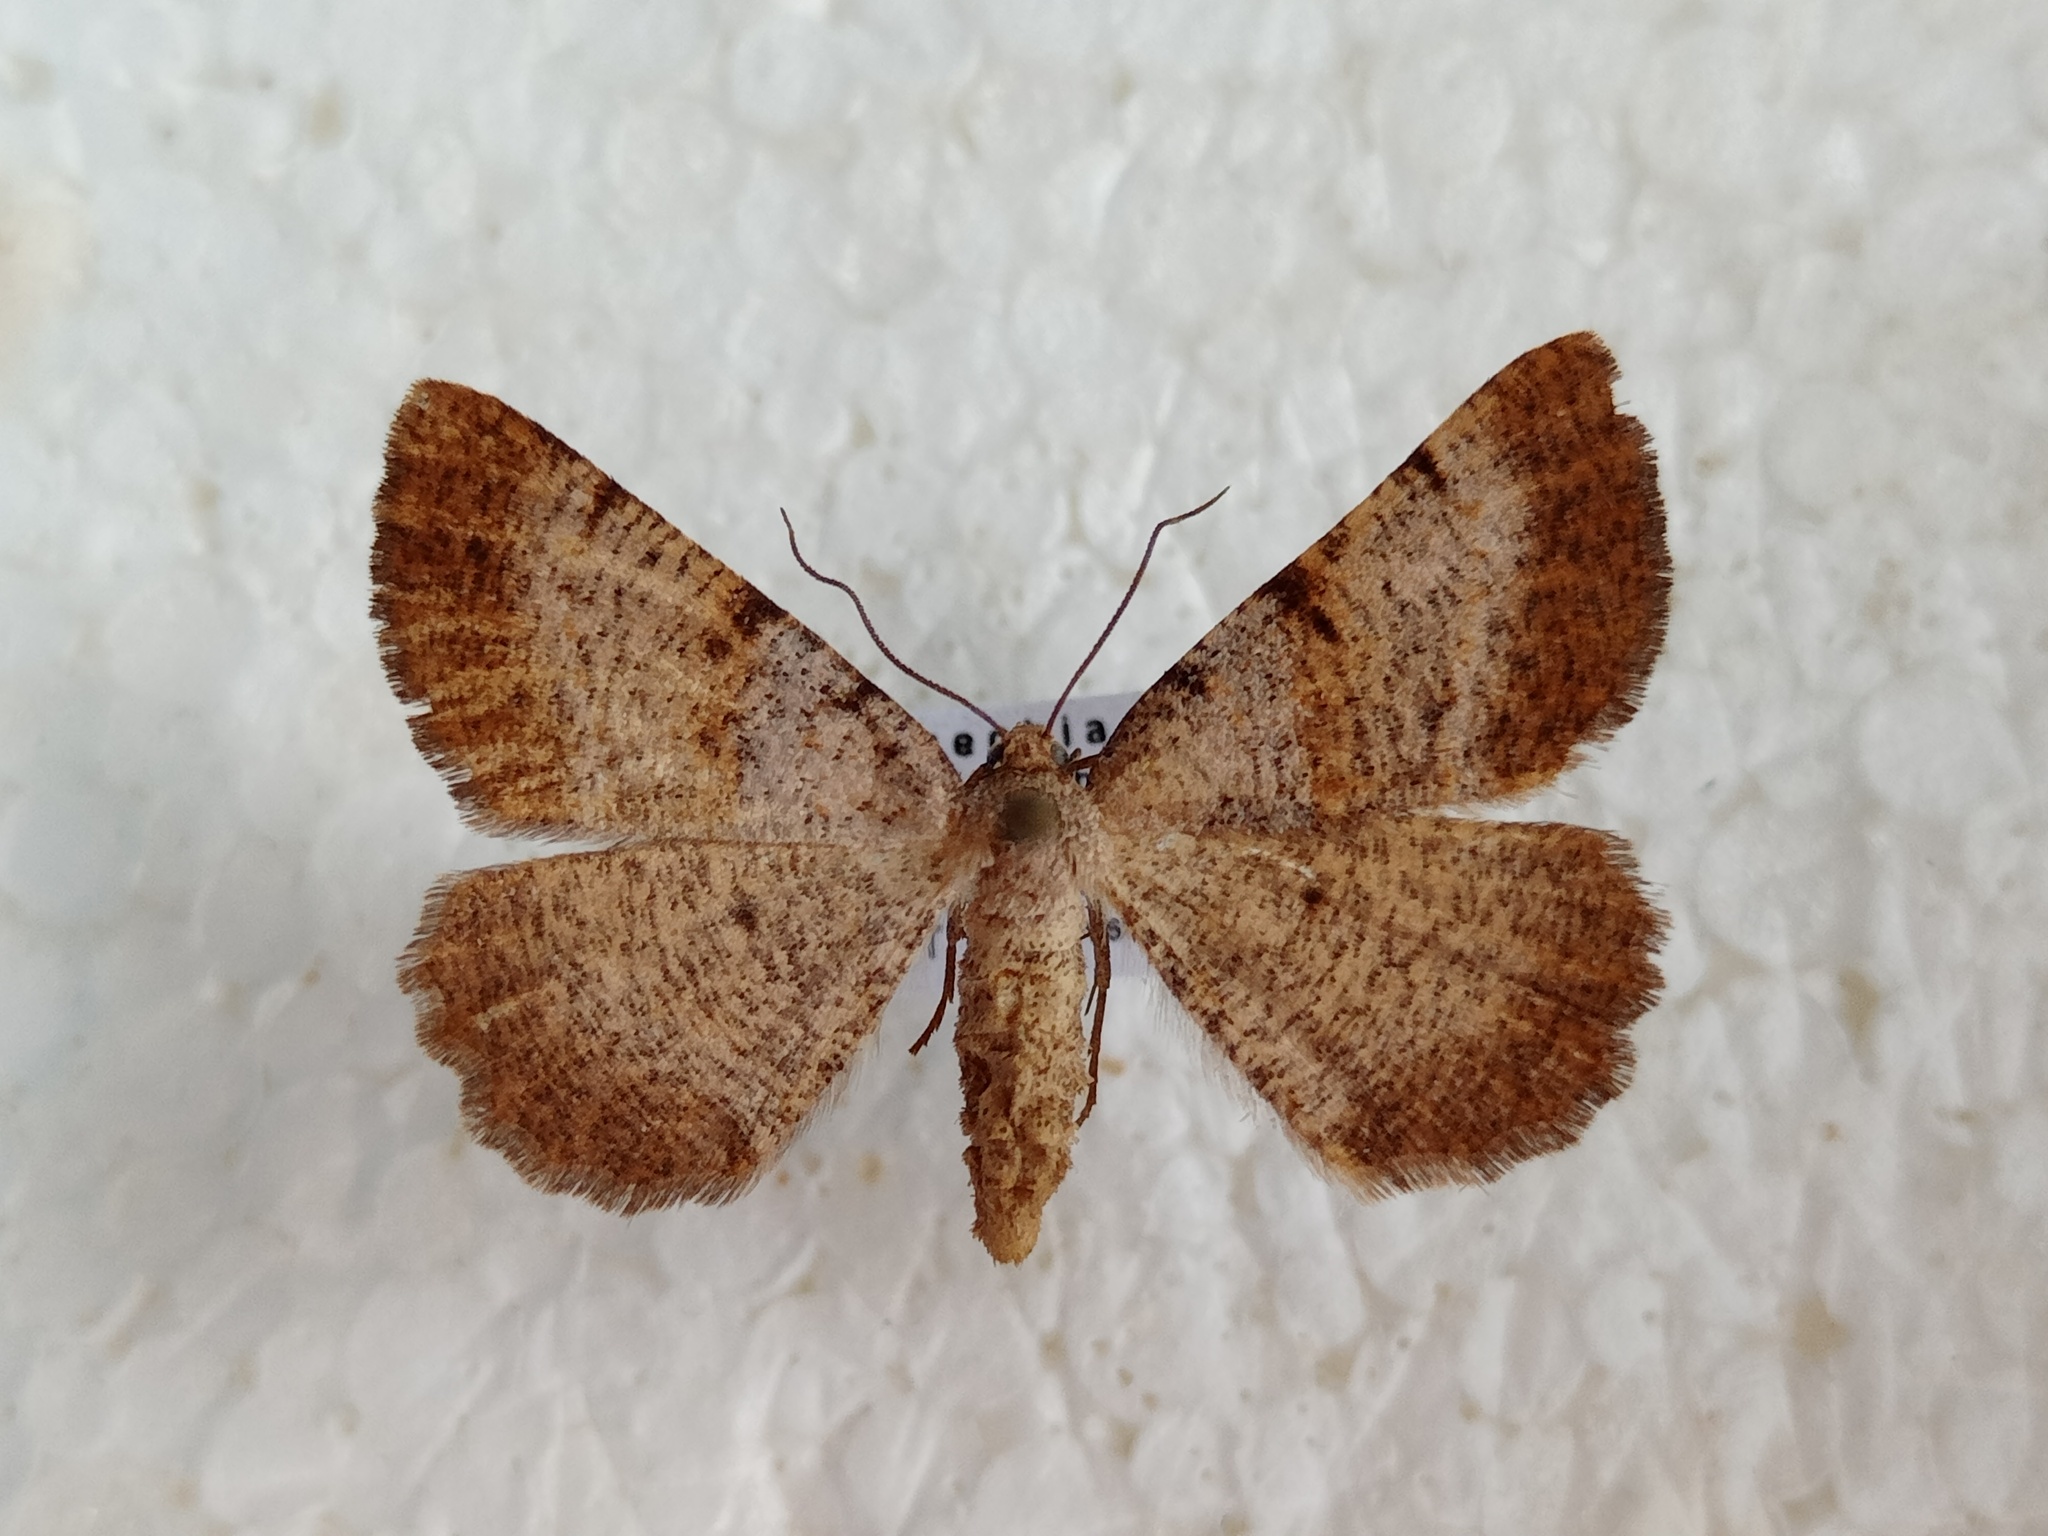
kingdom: Animalia
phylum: Arthropoda
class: Insecta
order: Lepidoptera
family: Geometridae
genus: Selidosema
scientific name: Selidosema brunnearia
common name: Bordered grey
